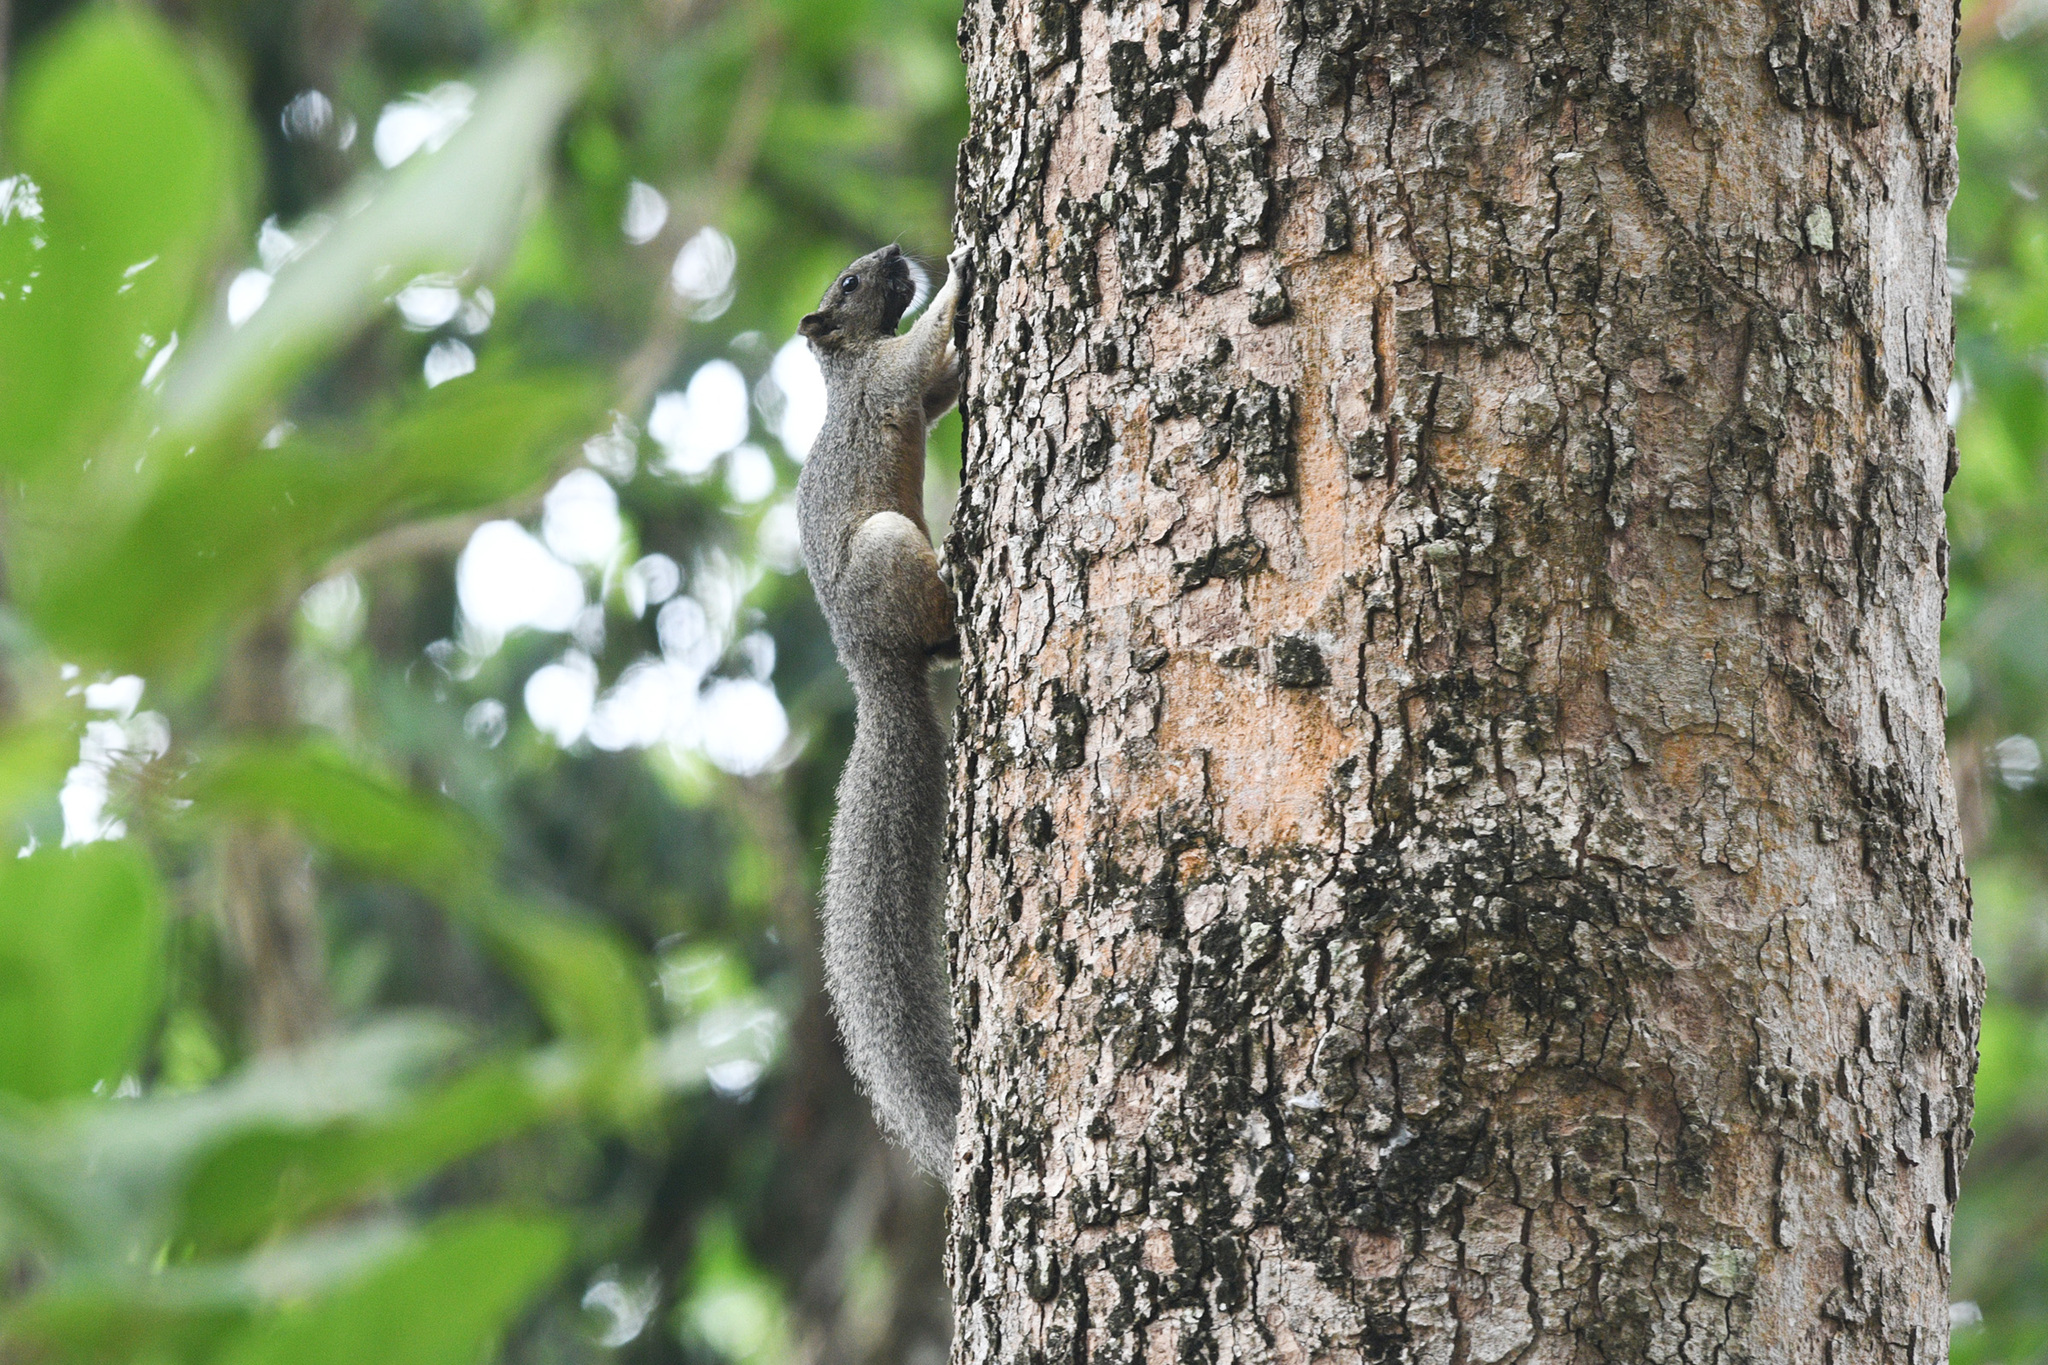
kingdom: Animalia
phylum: Chordata
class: Mammalia
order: Rodentia
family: Sciuridae
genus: Callosciurus
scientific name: Callosciurus erythraeus
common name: Pallas's squirrel
